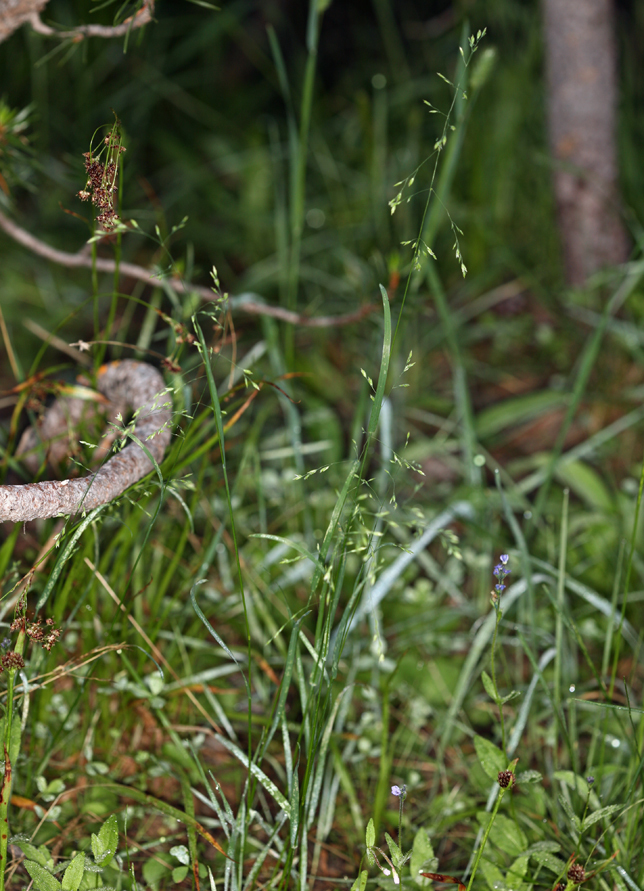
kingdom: Plantae
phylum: Tracheophyta
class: Liliopsida
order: Poales
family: Poaceae
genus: Poa
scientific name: Poa leptocoma
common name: Bog bluegrass
